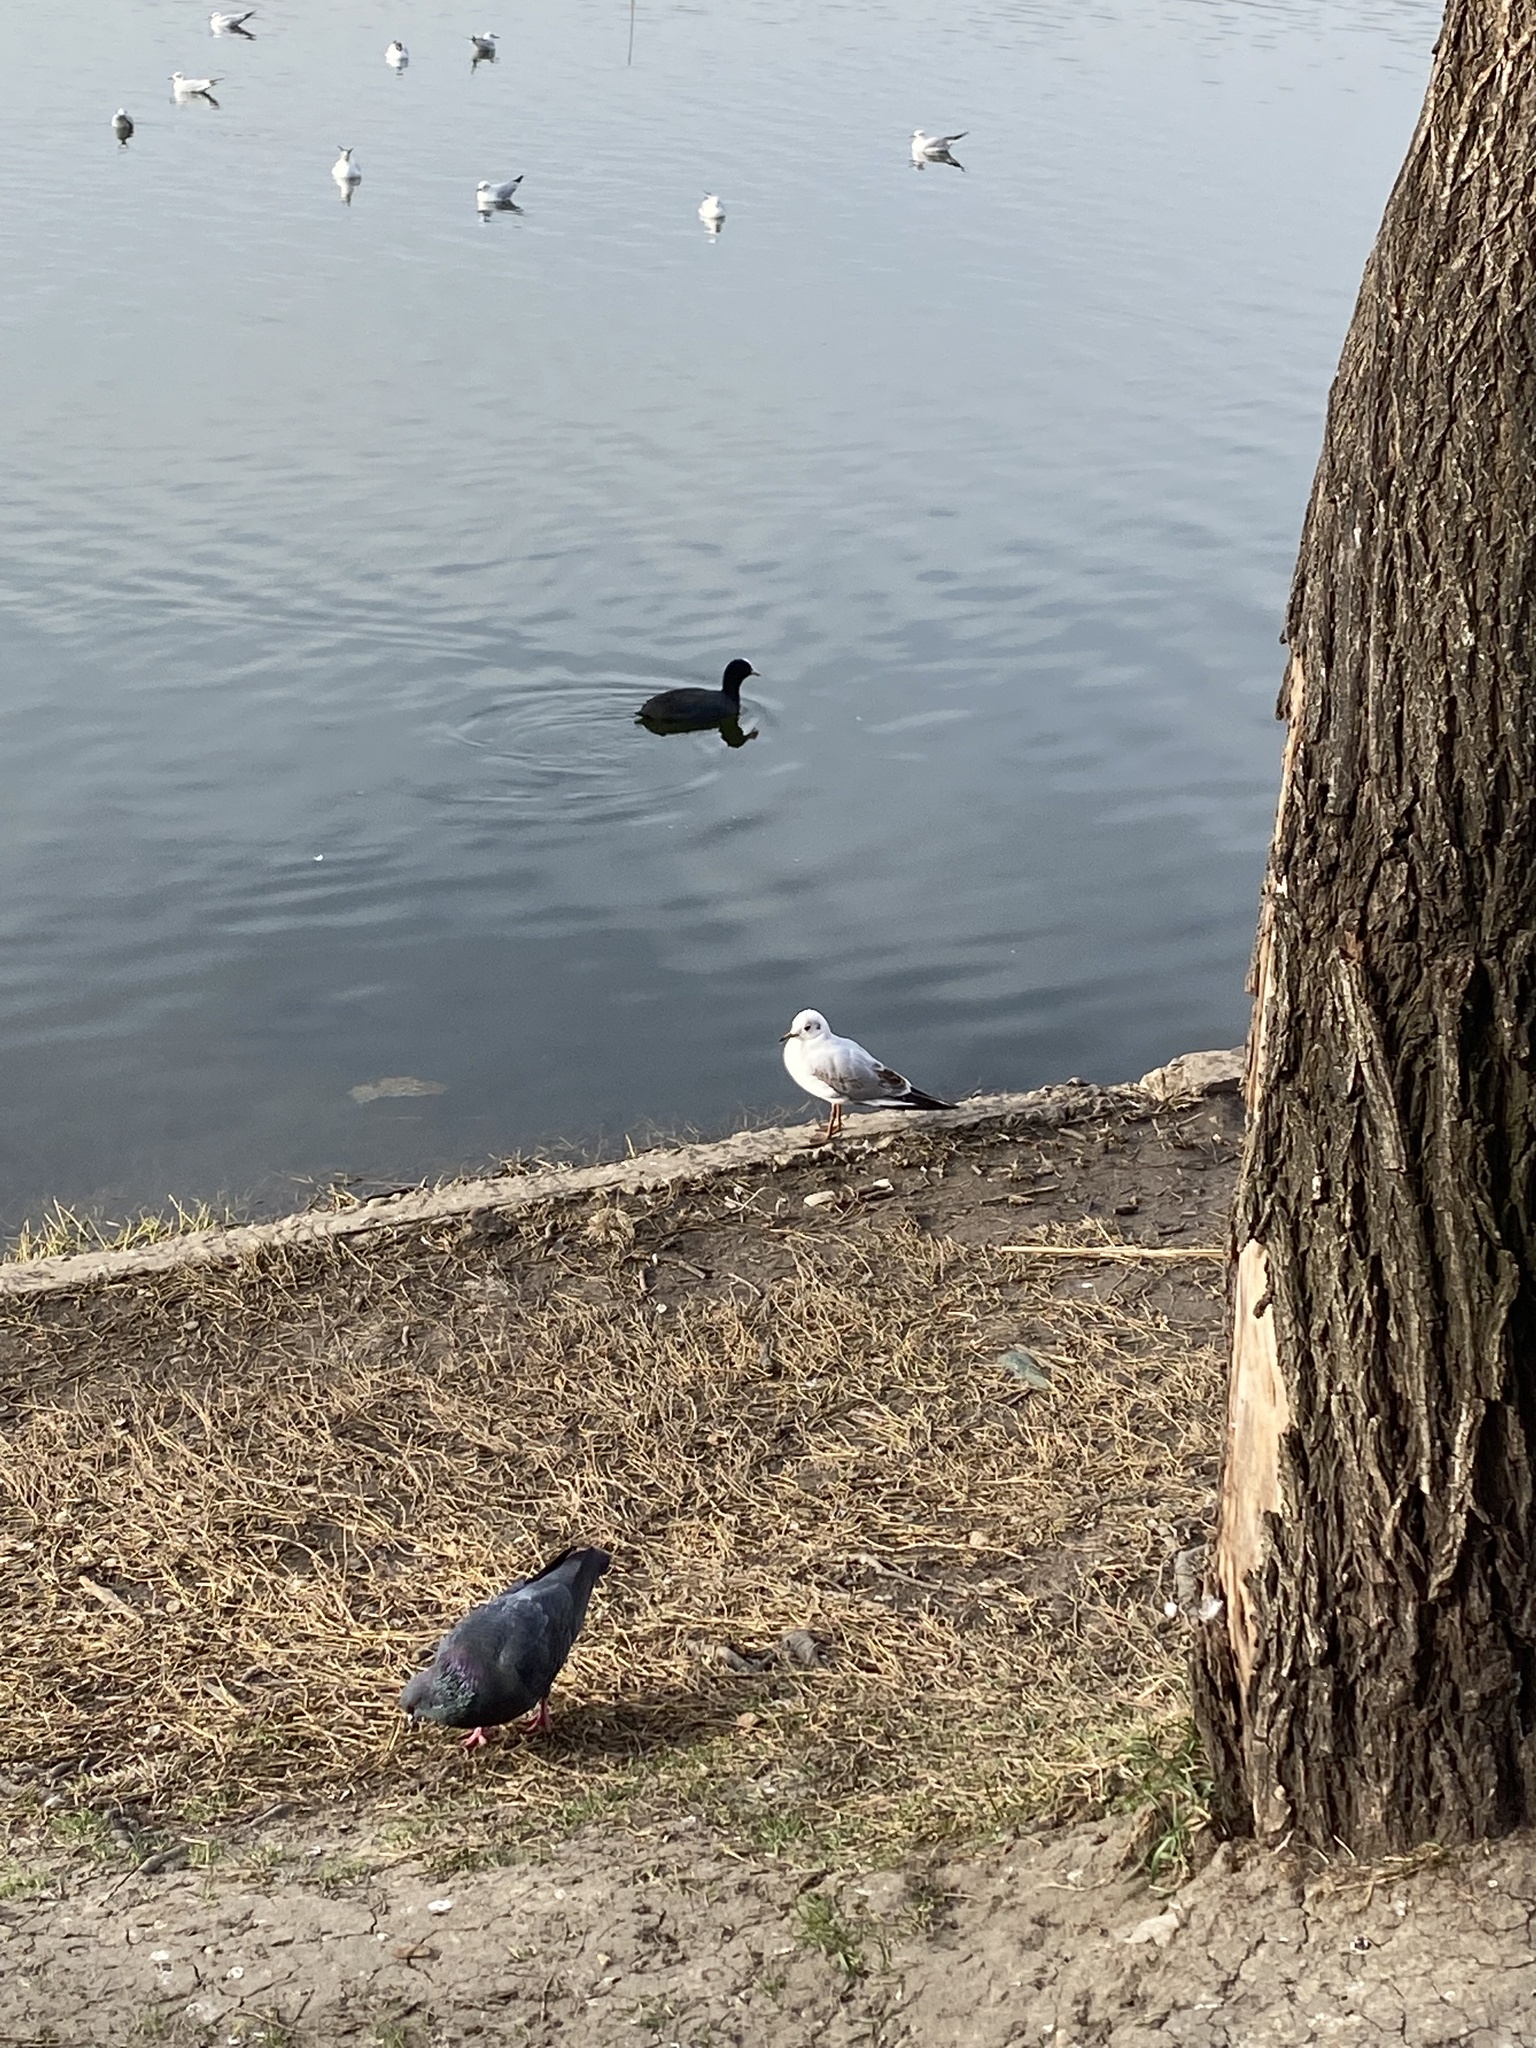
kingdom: Animalia
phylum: Chordata
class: Aves
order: Charadriiformes
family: Laridae
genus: Chroicocephalus
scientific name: Chroicocephalus ridibundus
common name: Black-headed gull
